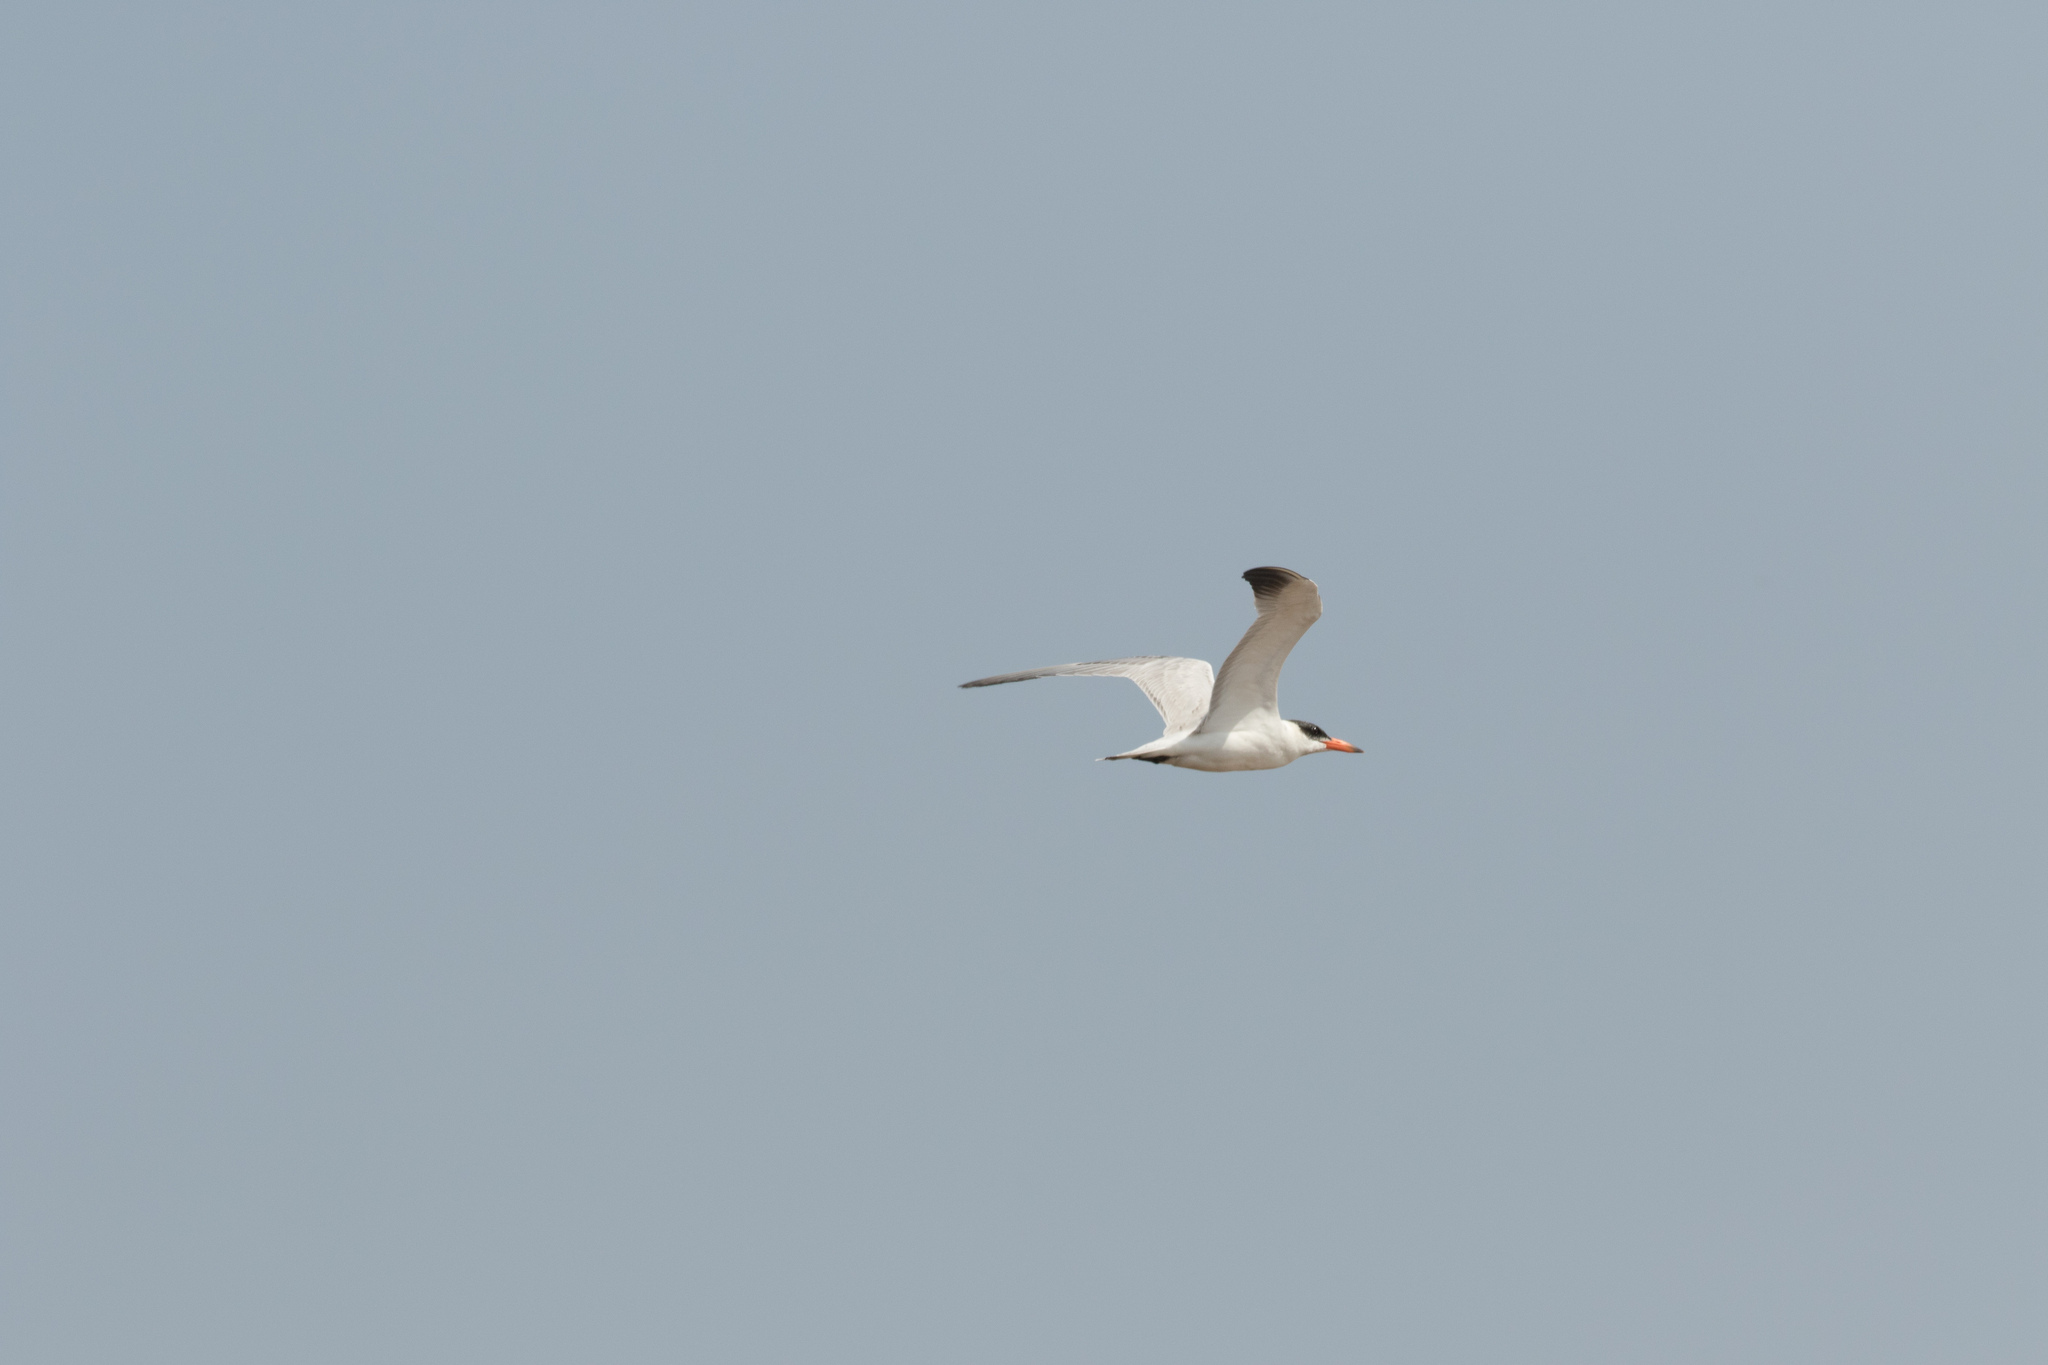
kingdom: Animalia
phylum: Chordata
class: Aves
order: Charadriiformes
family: Laridae
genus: Hydroprogne
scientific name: Hydroprogne caspia
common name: Caspian tern
